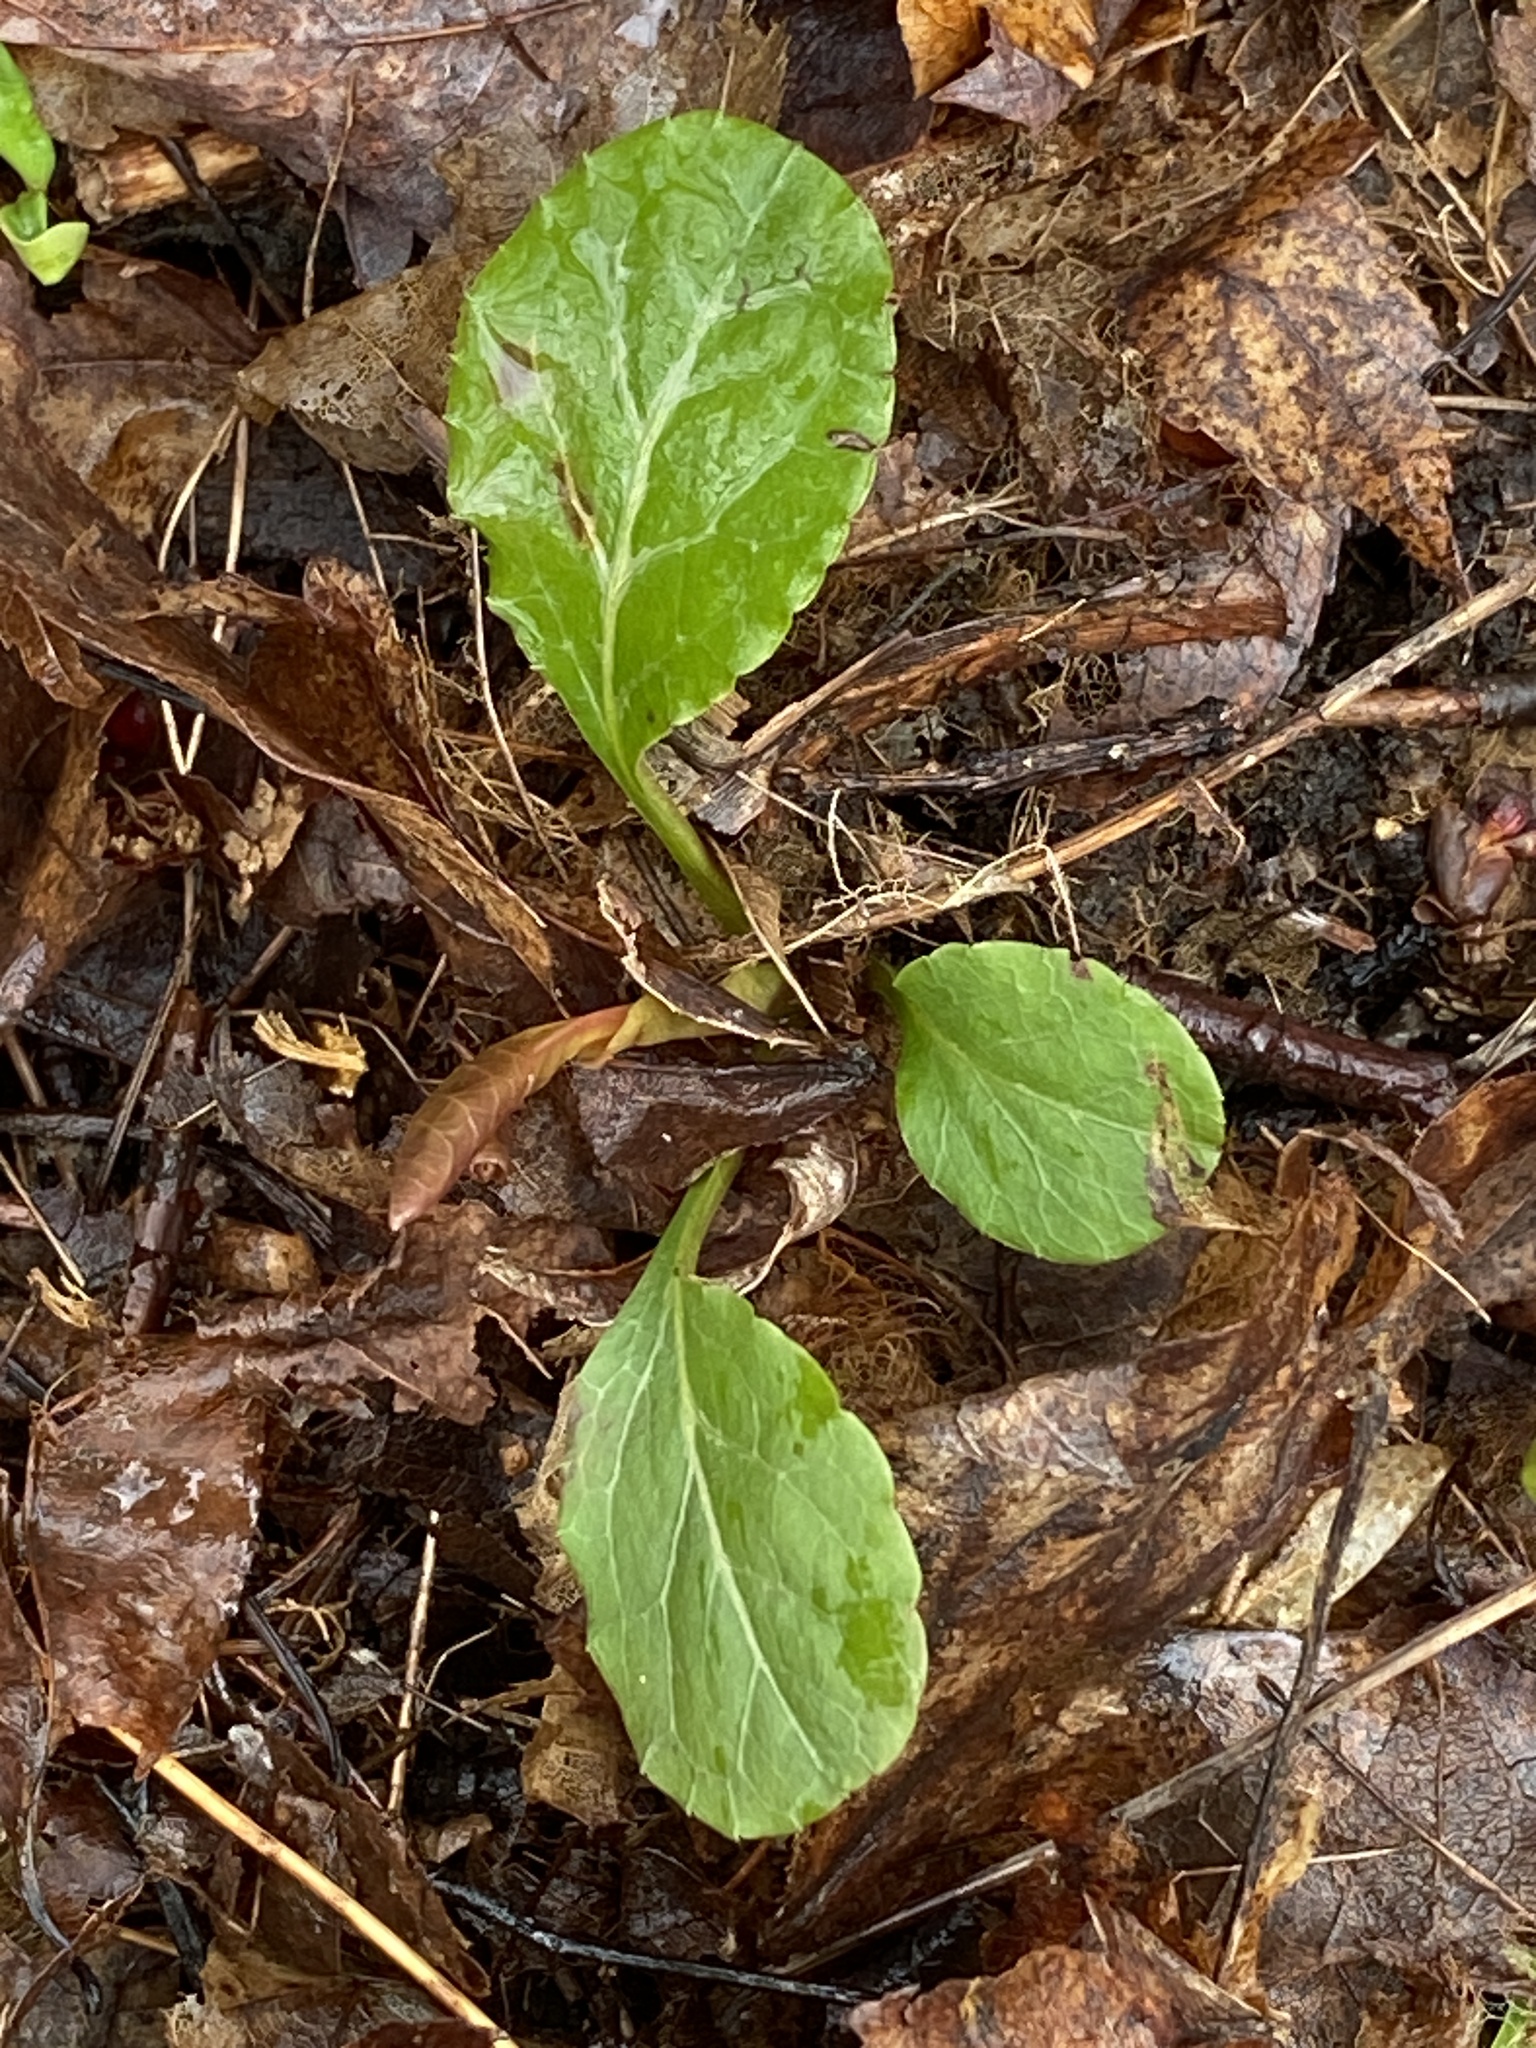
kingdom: Plantae
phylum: Tracheophyta
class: Magnoliopsida
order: Ericales
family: Ericaceae
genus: Pyrola
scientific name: Pyrola elliptica
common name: Shinleaf
